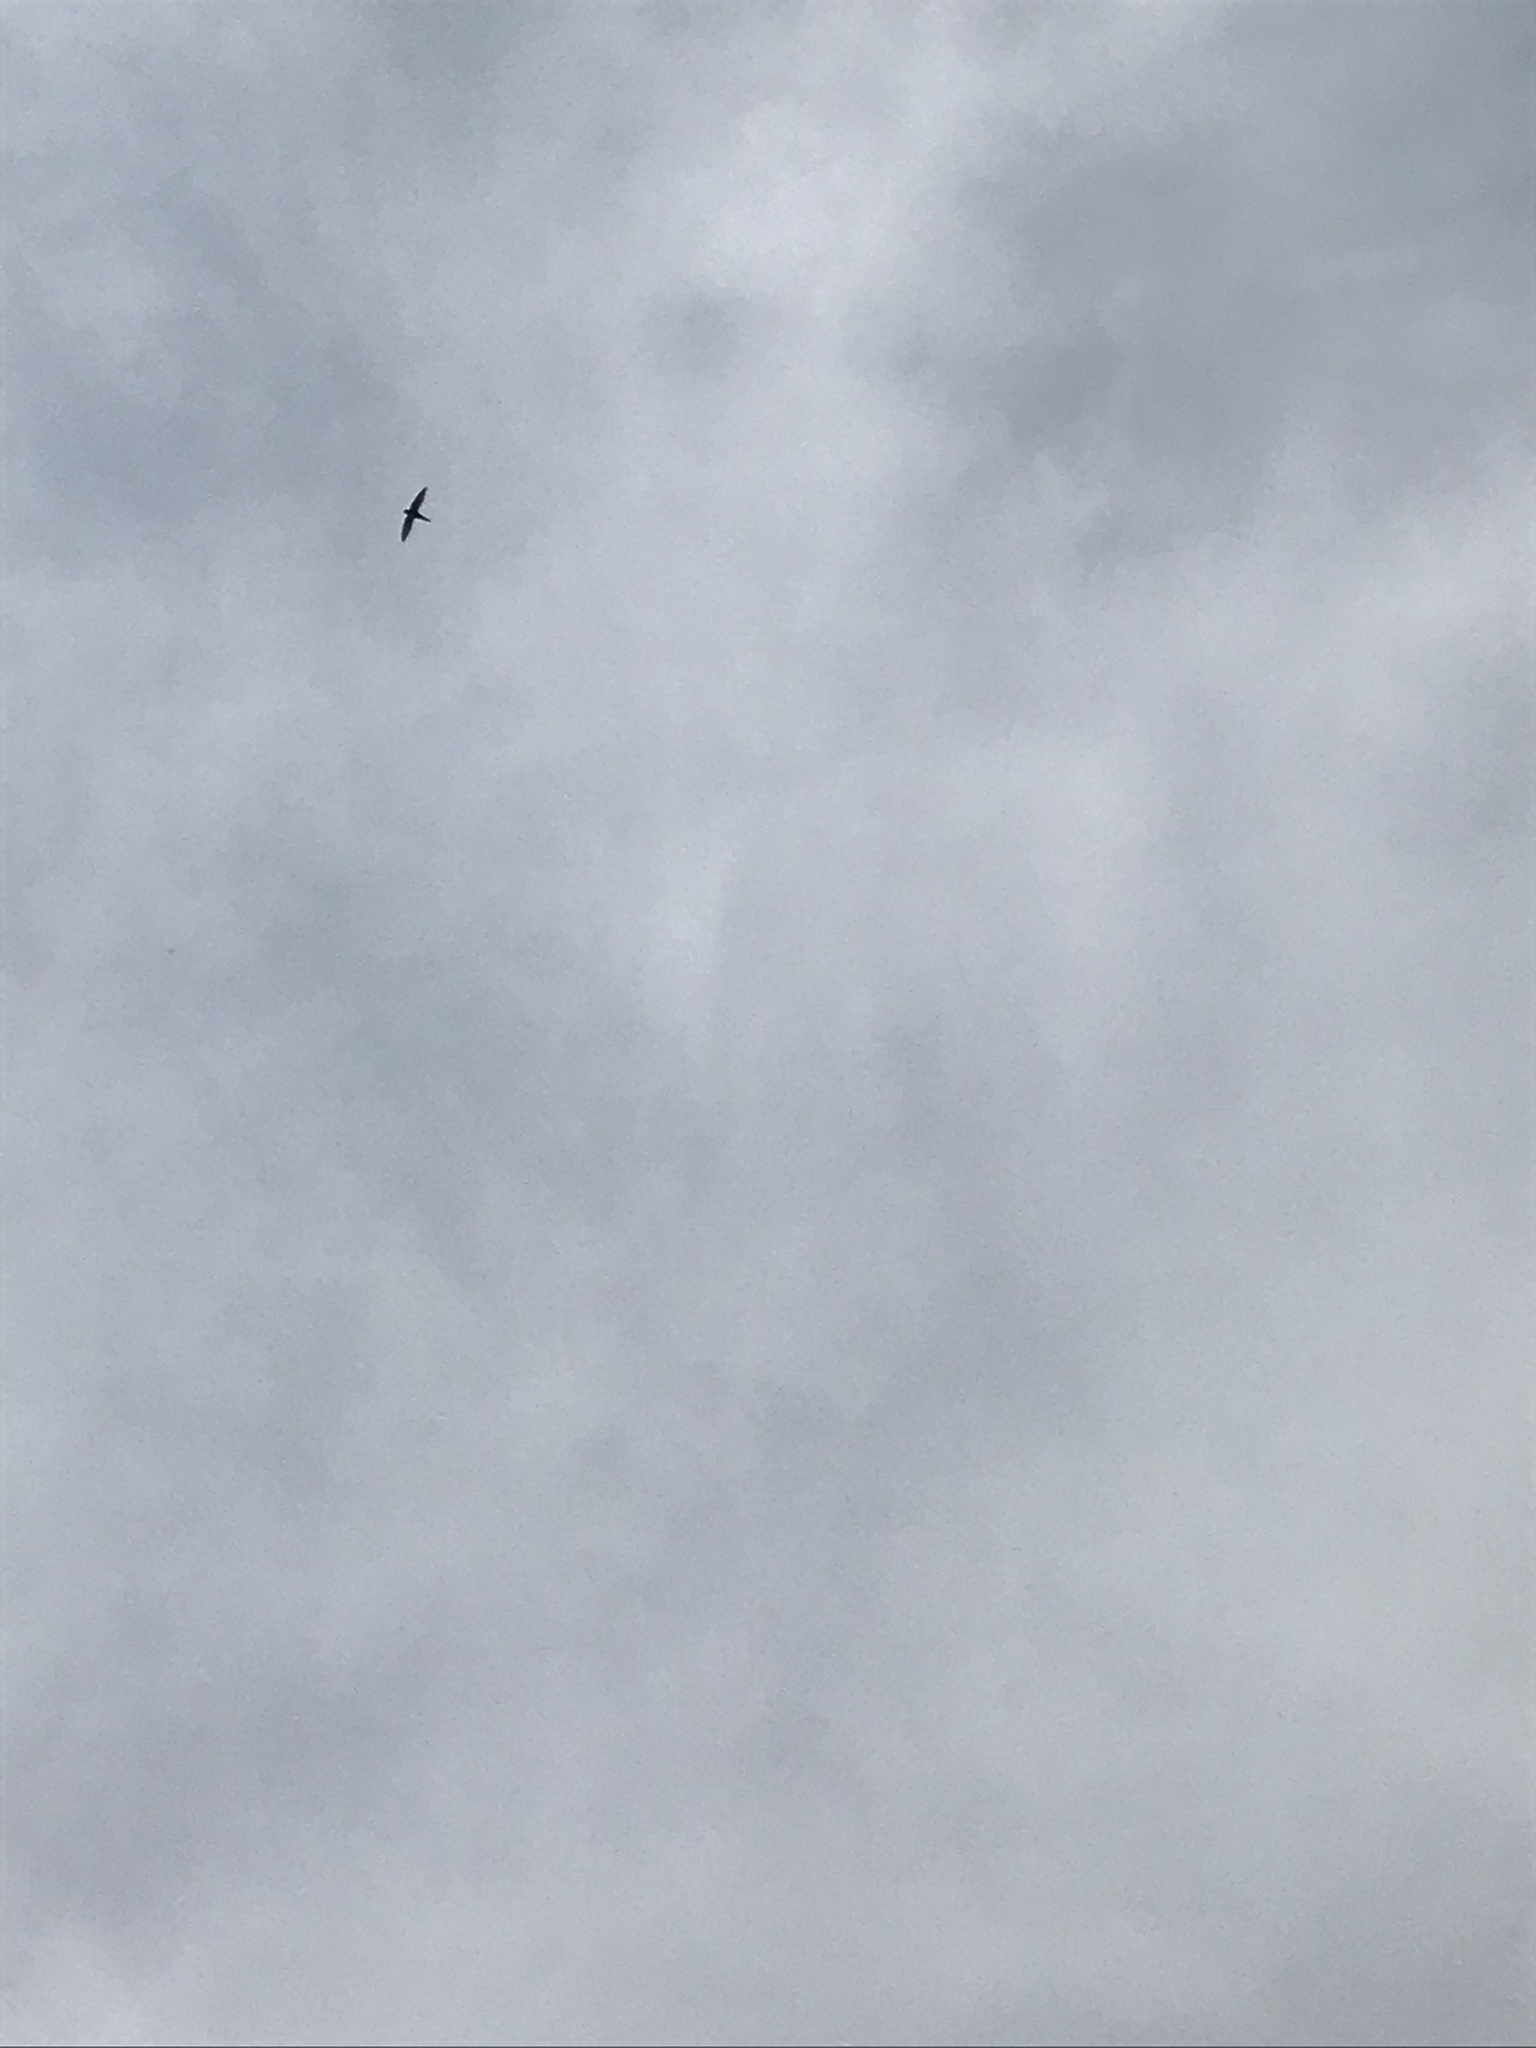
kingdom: Animalia
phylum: Chordata
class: Aves
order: Apodiformes
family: Apodidae
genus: Apus
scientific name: Apus apus
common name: Common swift
